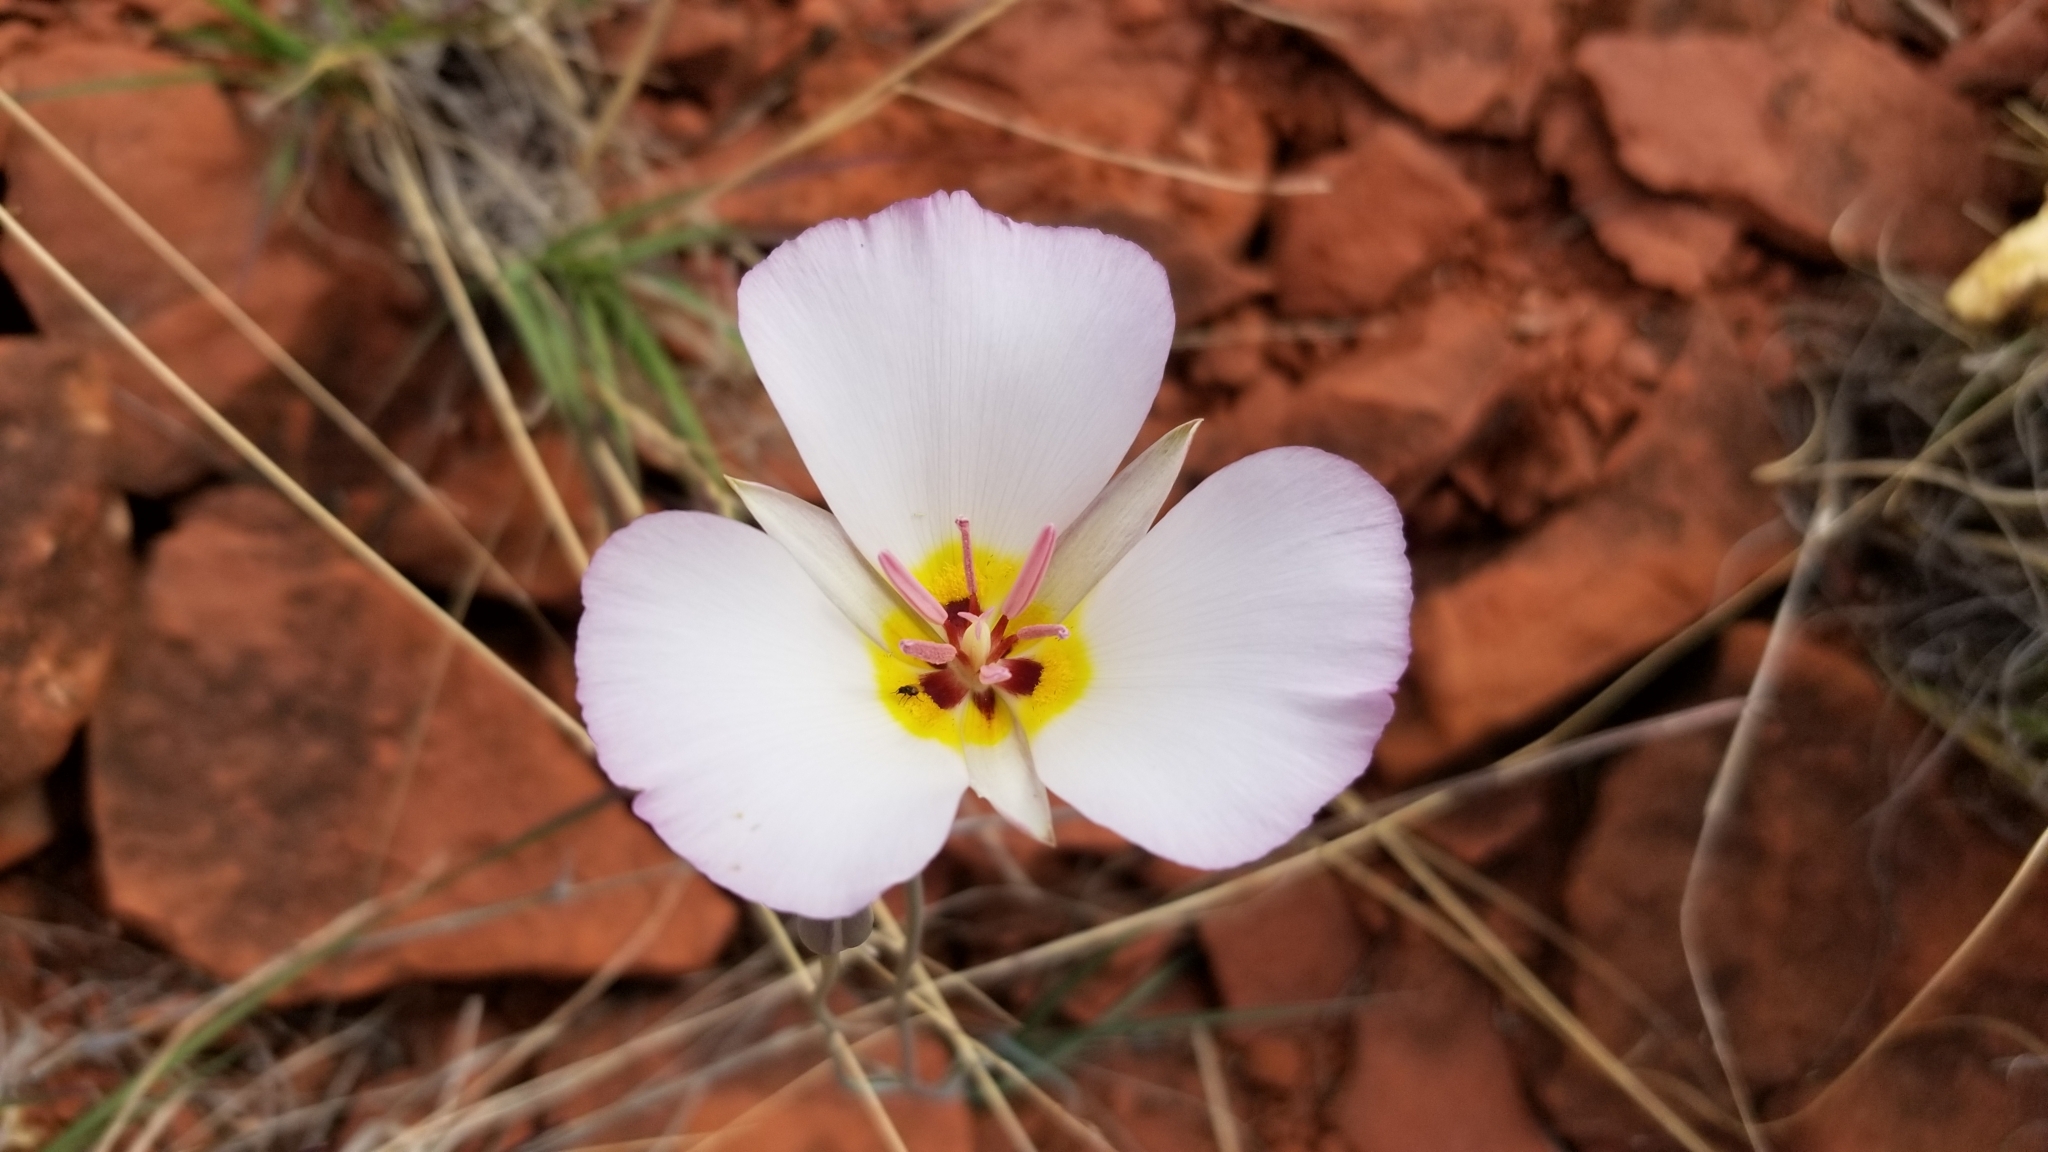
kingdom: Plantae
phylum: Tracheophyta
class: Liliopsida
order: Liliales
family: Liliaceae
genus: Calochortus
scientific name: Calochortus flexuosus
